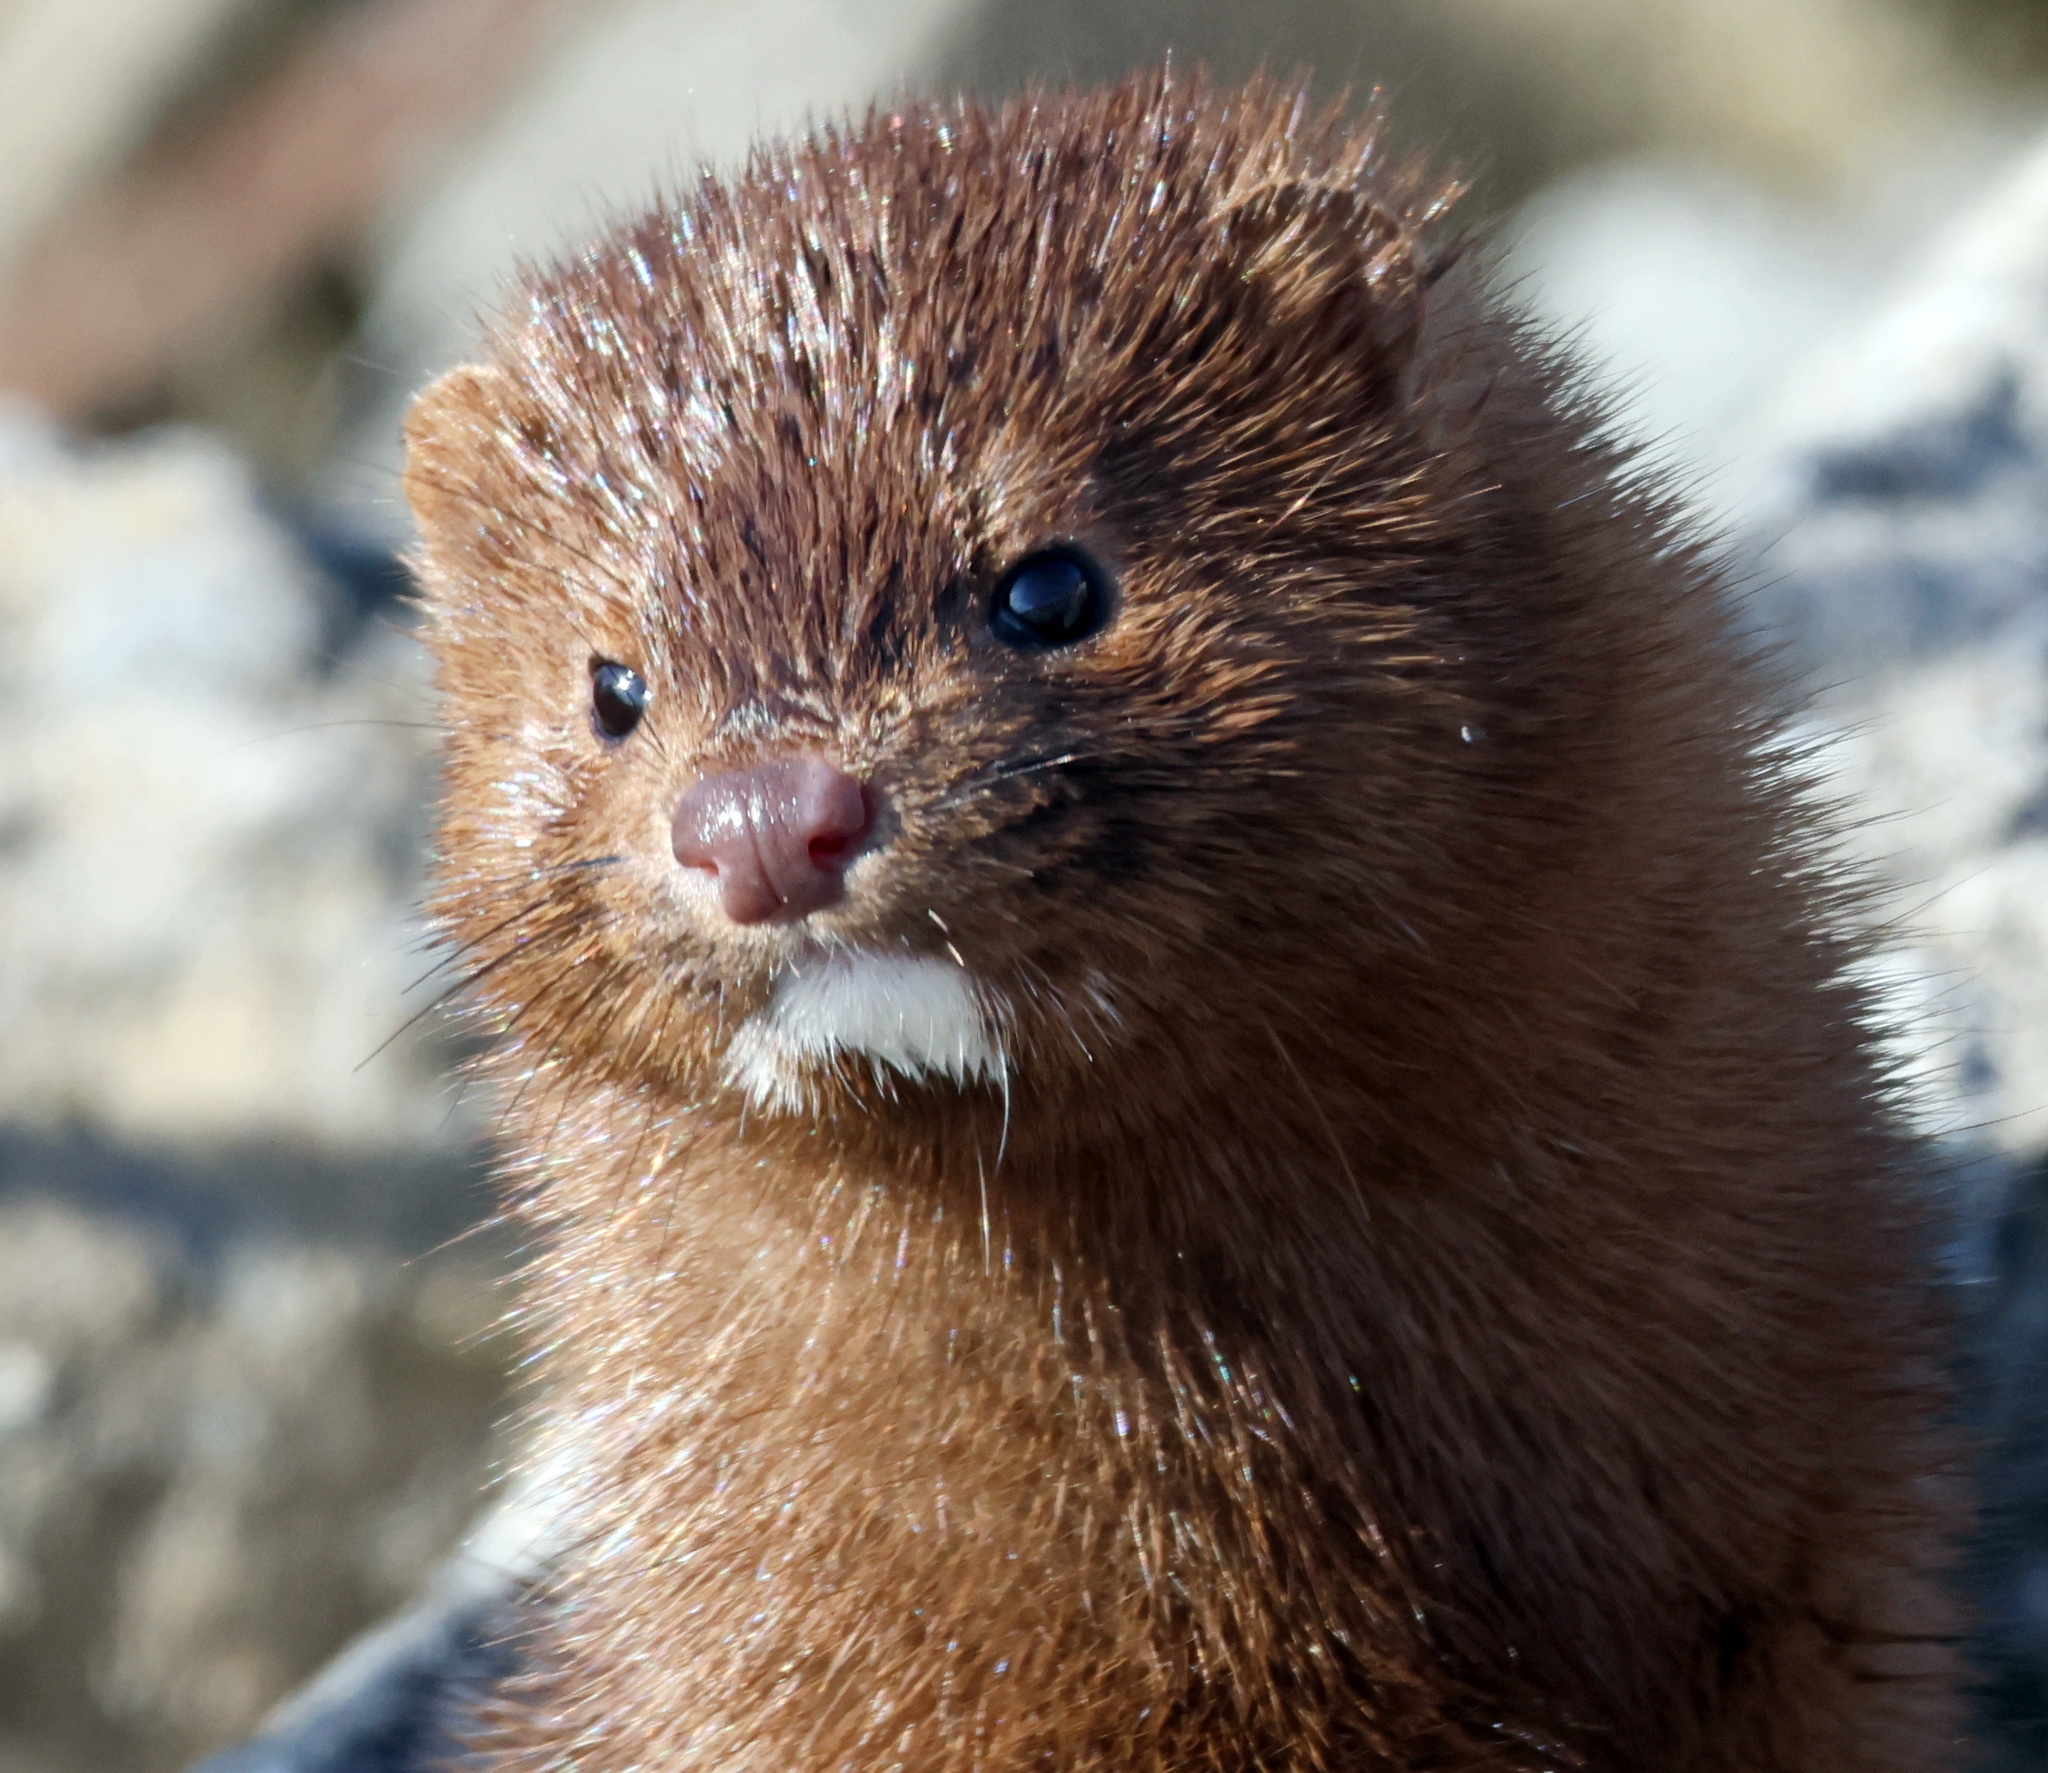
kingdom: Animalia
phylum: Chordata
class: Mammalia
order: Carnivora
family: Mustelidae
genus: Mustela
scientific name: Mustela
